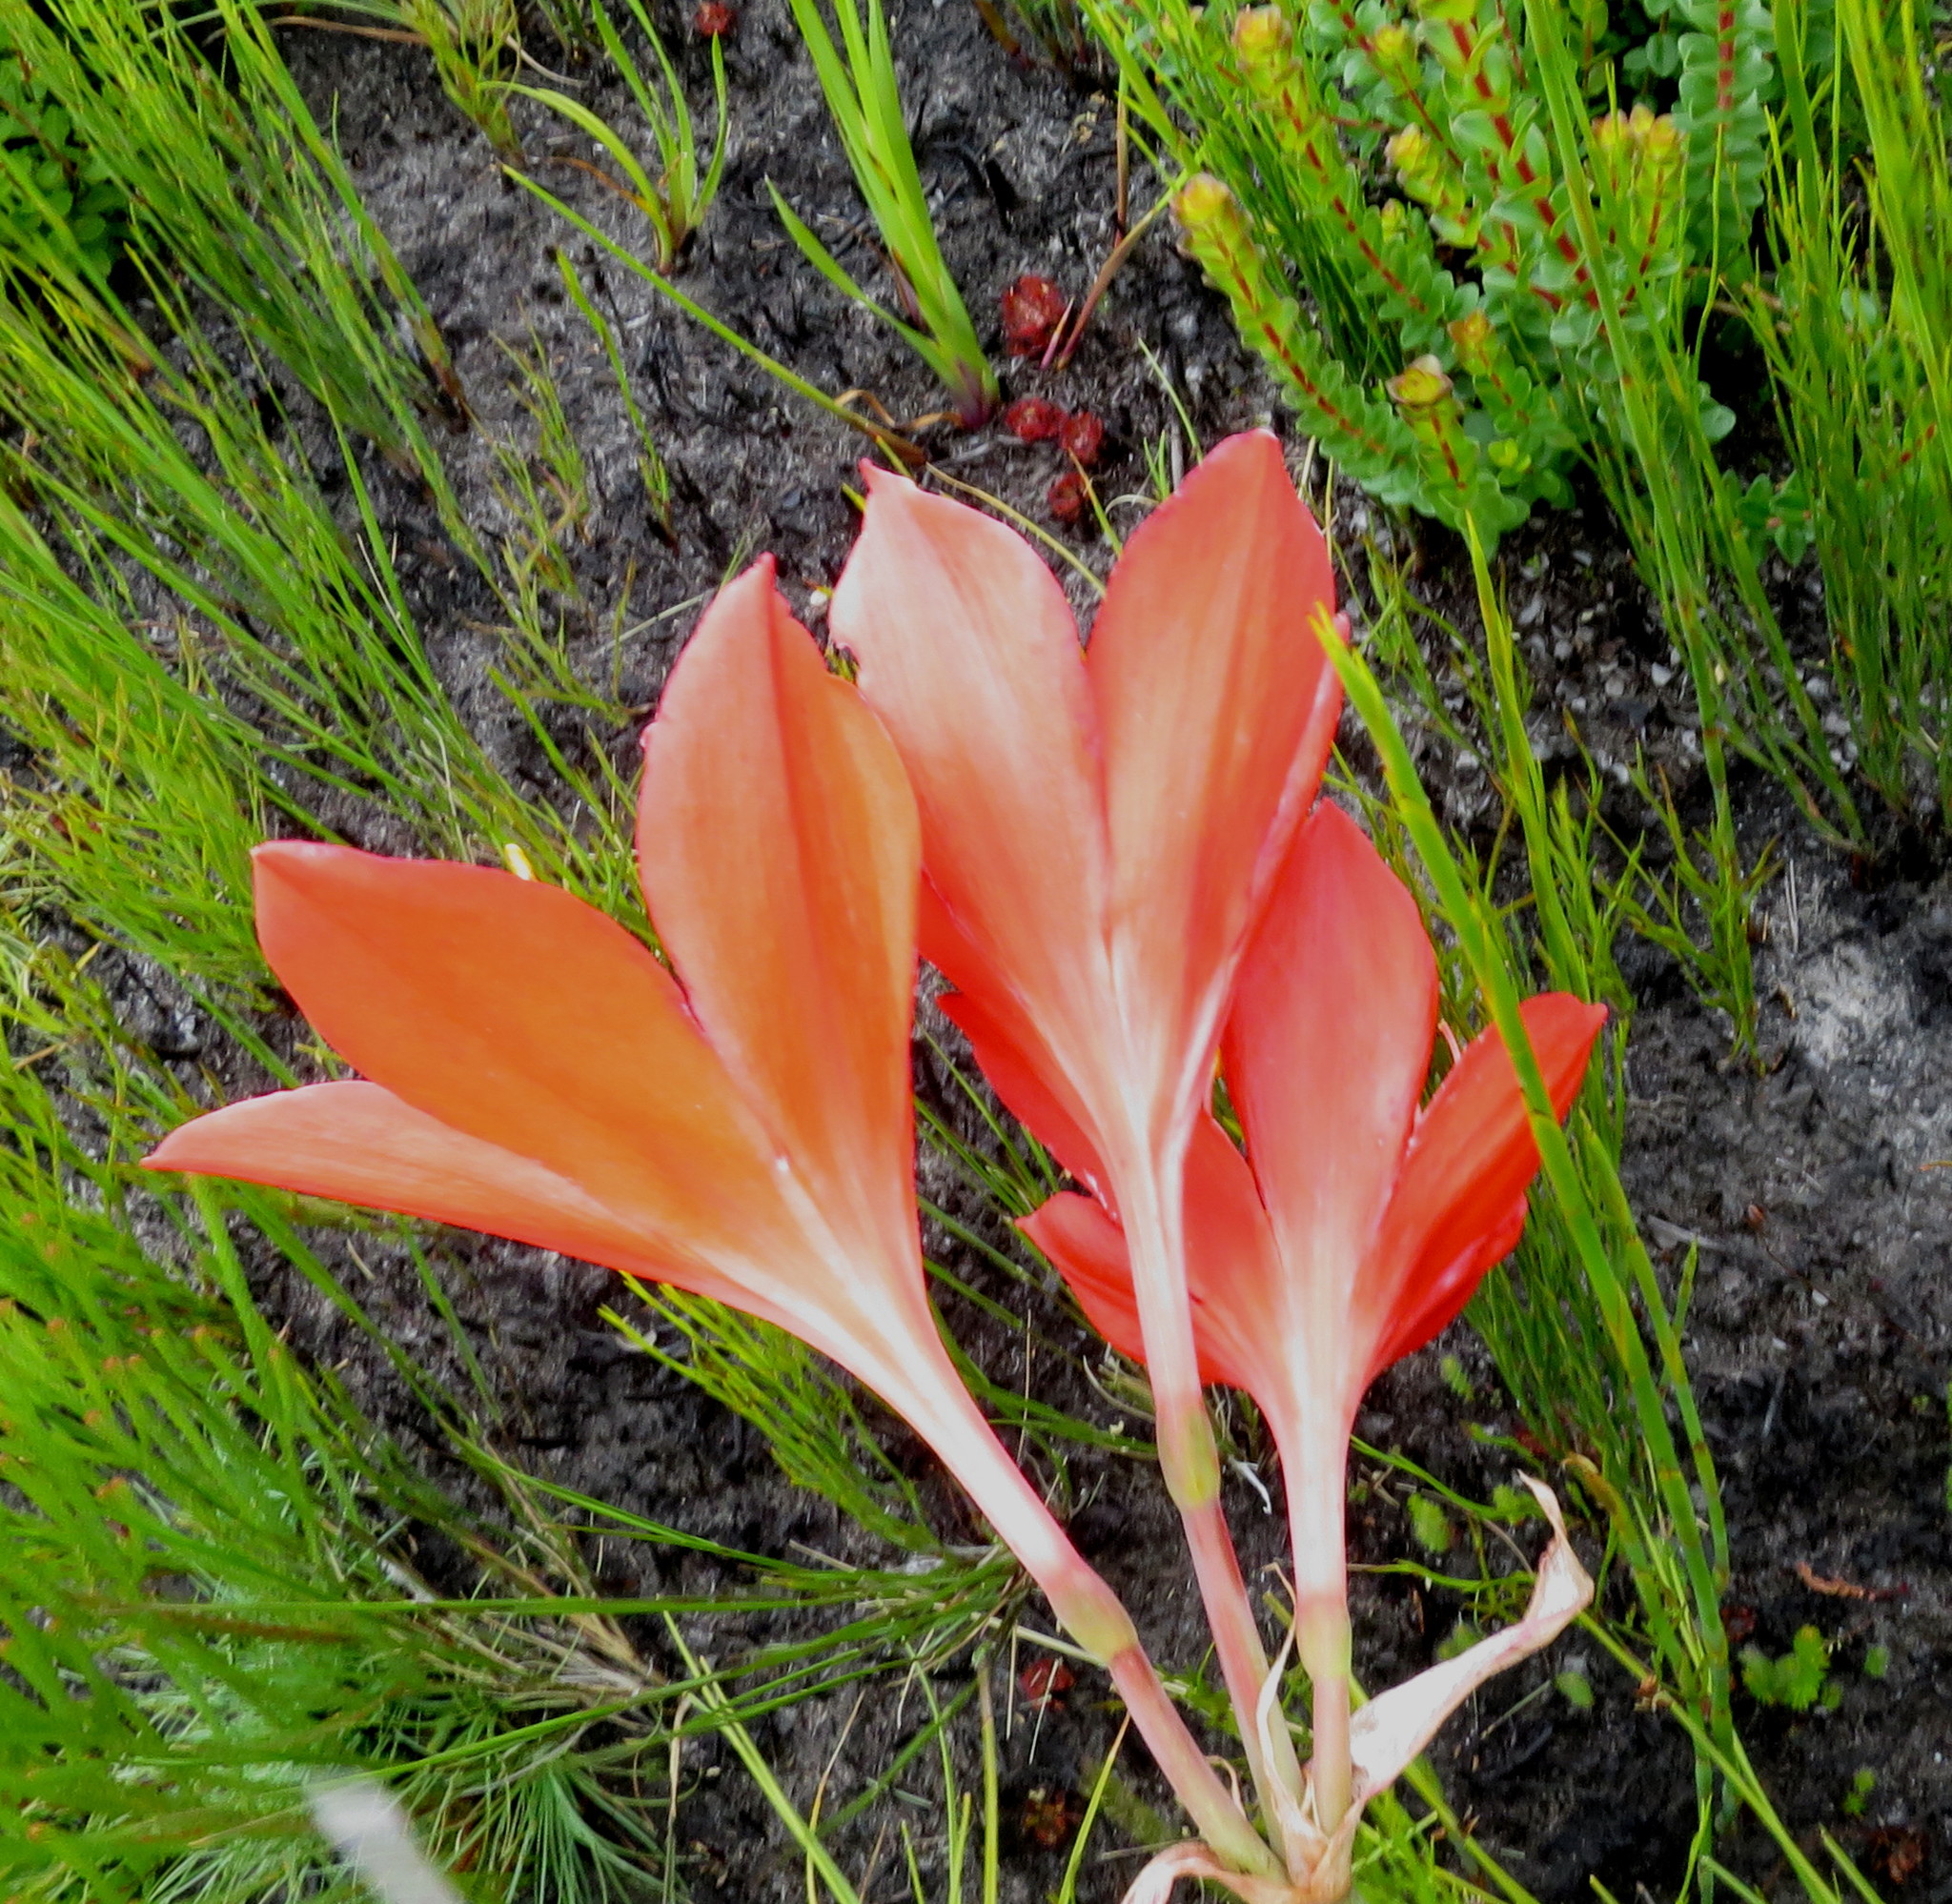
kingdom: Plantae
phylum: Tracheophyta
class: Liliopsida
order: Asparagales
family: Amaryllidaceae
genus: Cyrtanthus
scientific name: Cyrtanthus elatus
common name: Scarborough-lily
